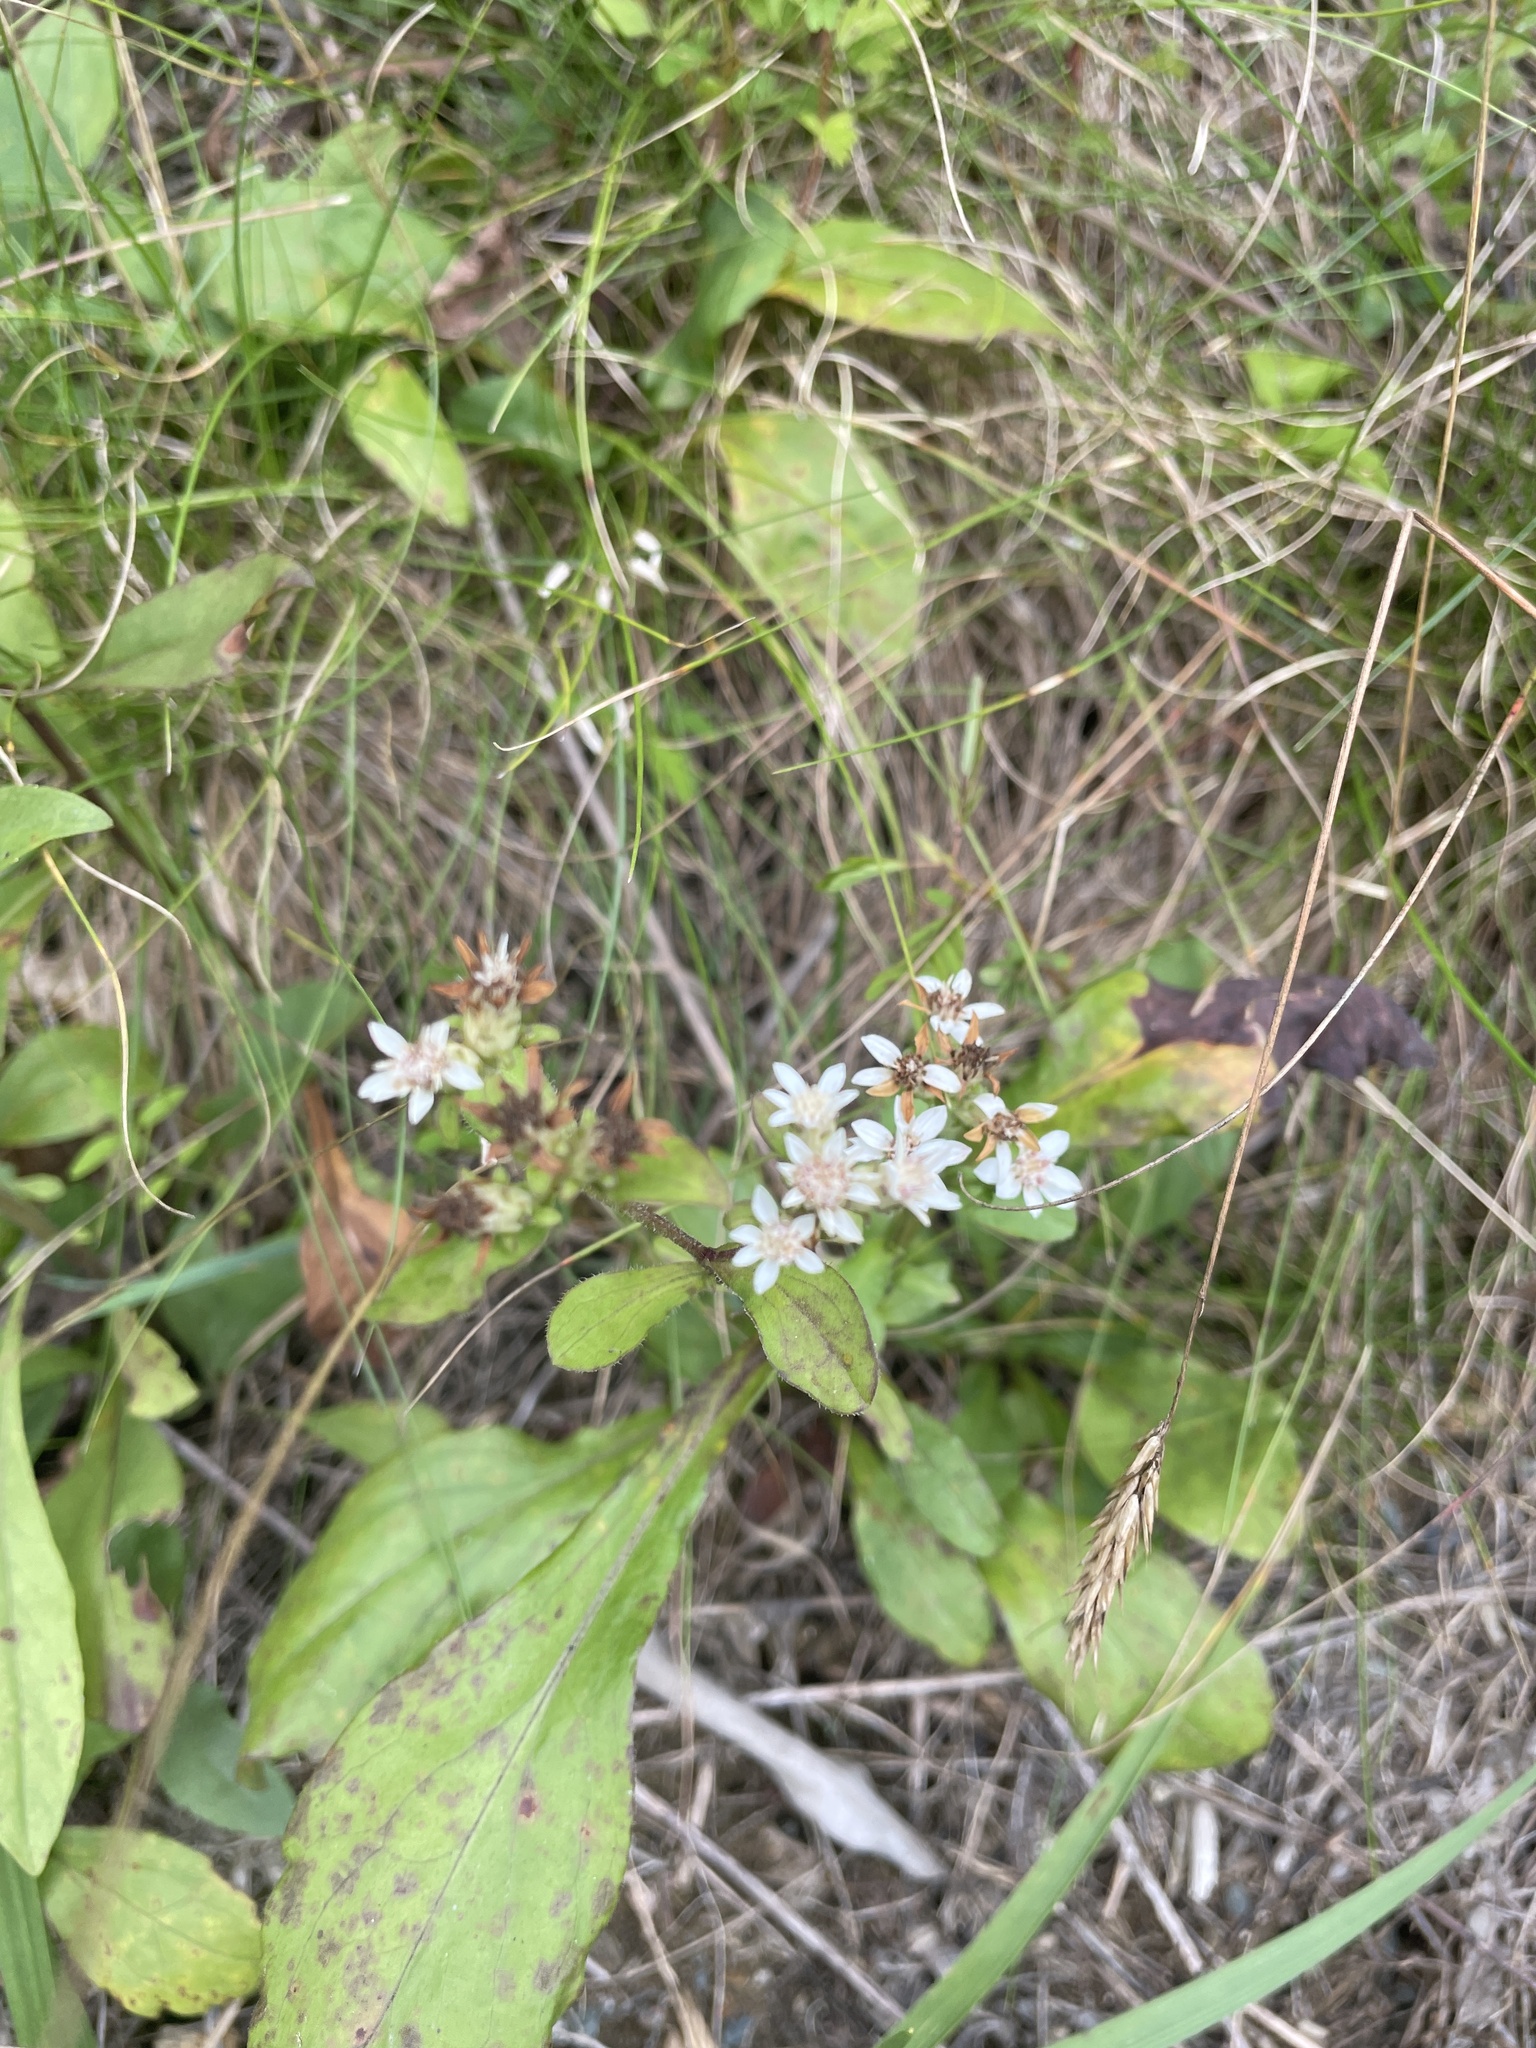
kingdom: Plantae
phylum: Tracheophyta
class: Magnoliopsida
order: Asterales
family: Asteraceae
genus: Sericocarpus
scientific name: Sericocarpus caespitosus
